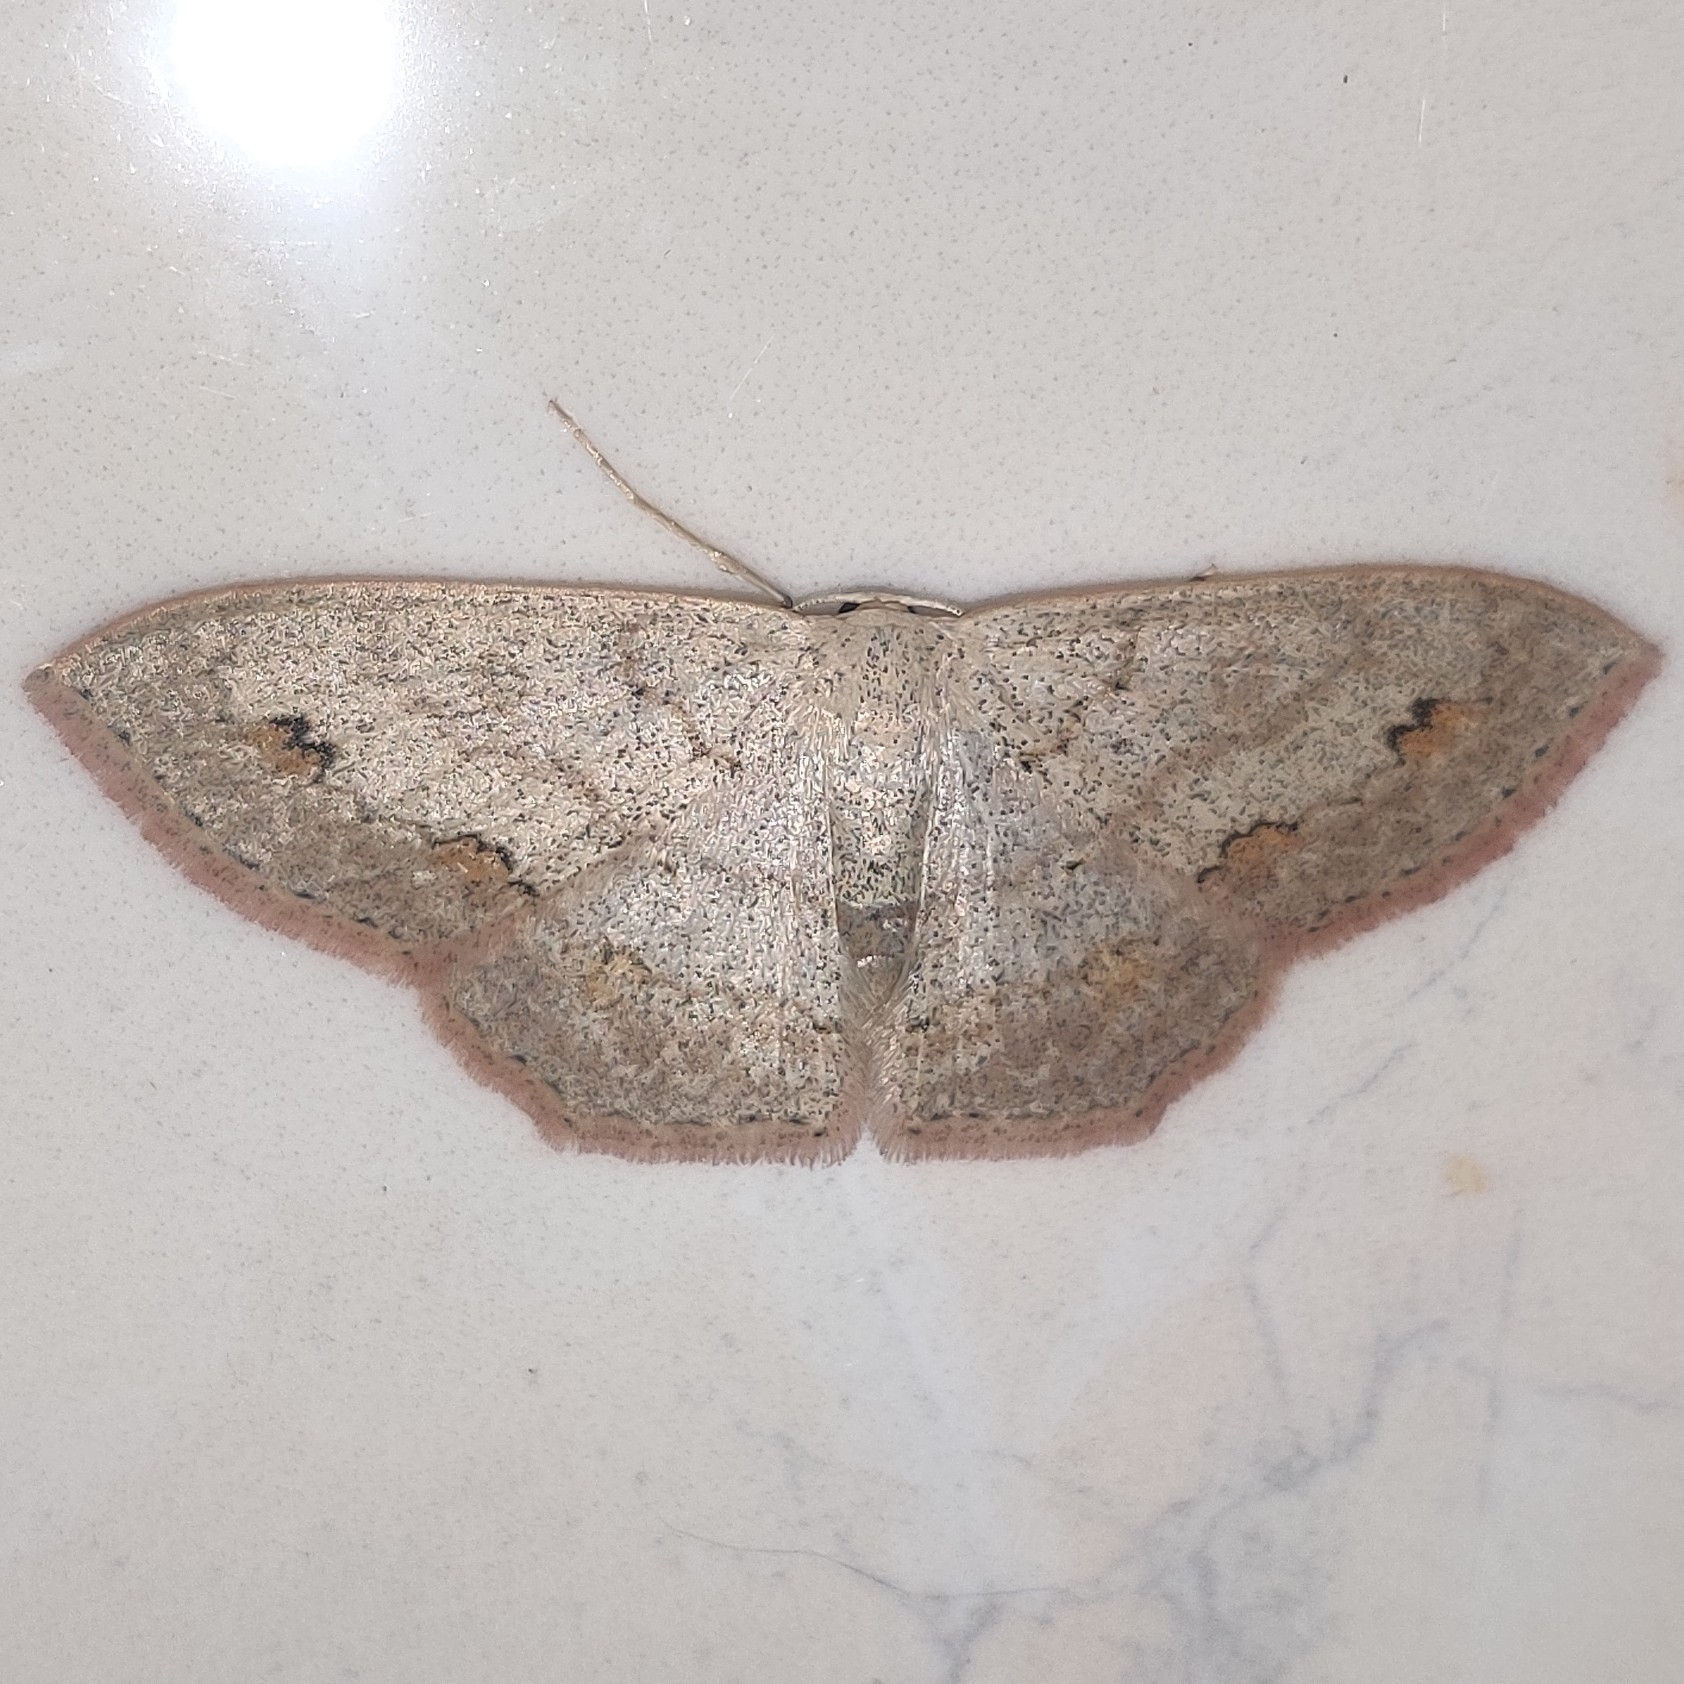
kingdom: Animalia
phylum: Arthropoda
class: Insecta
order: Lepidoptera
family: Geometridae
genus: Scopula
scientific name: Scopula moorei
